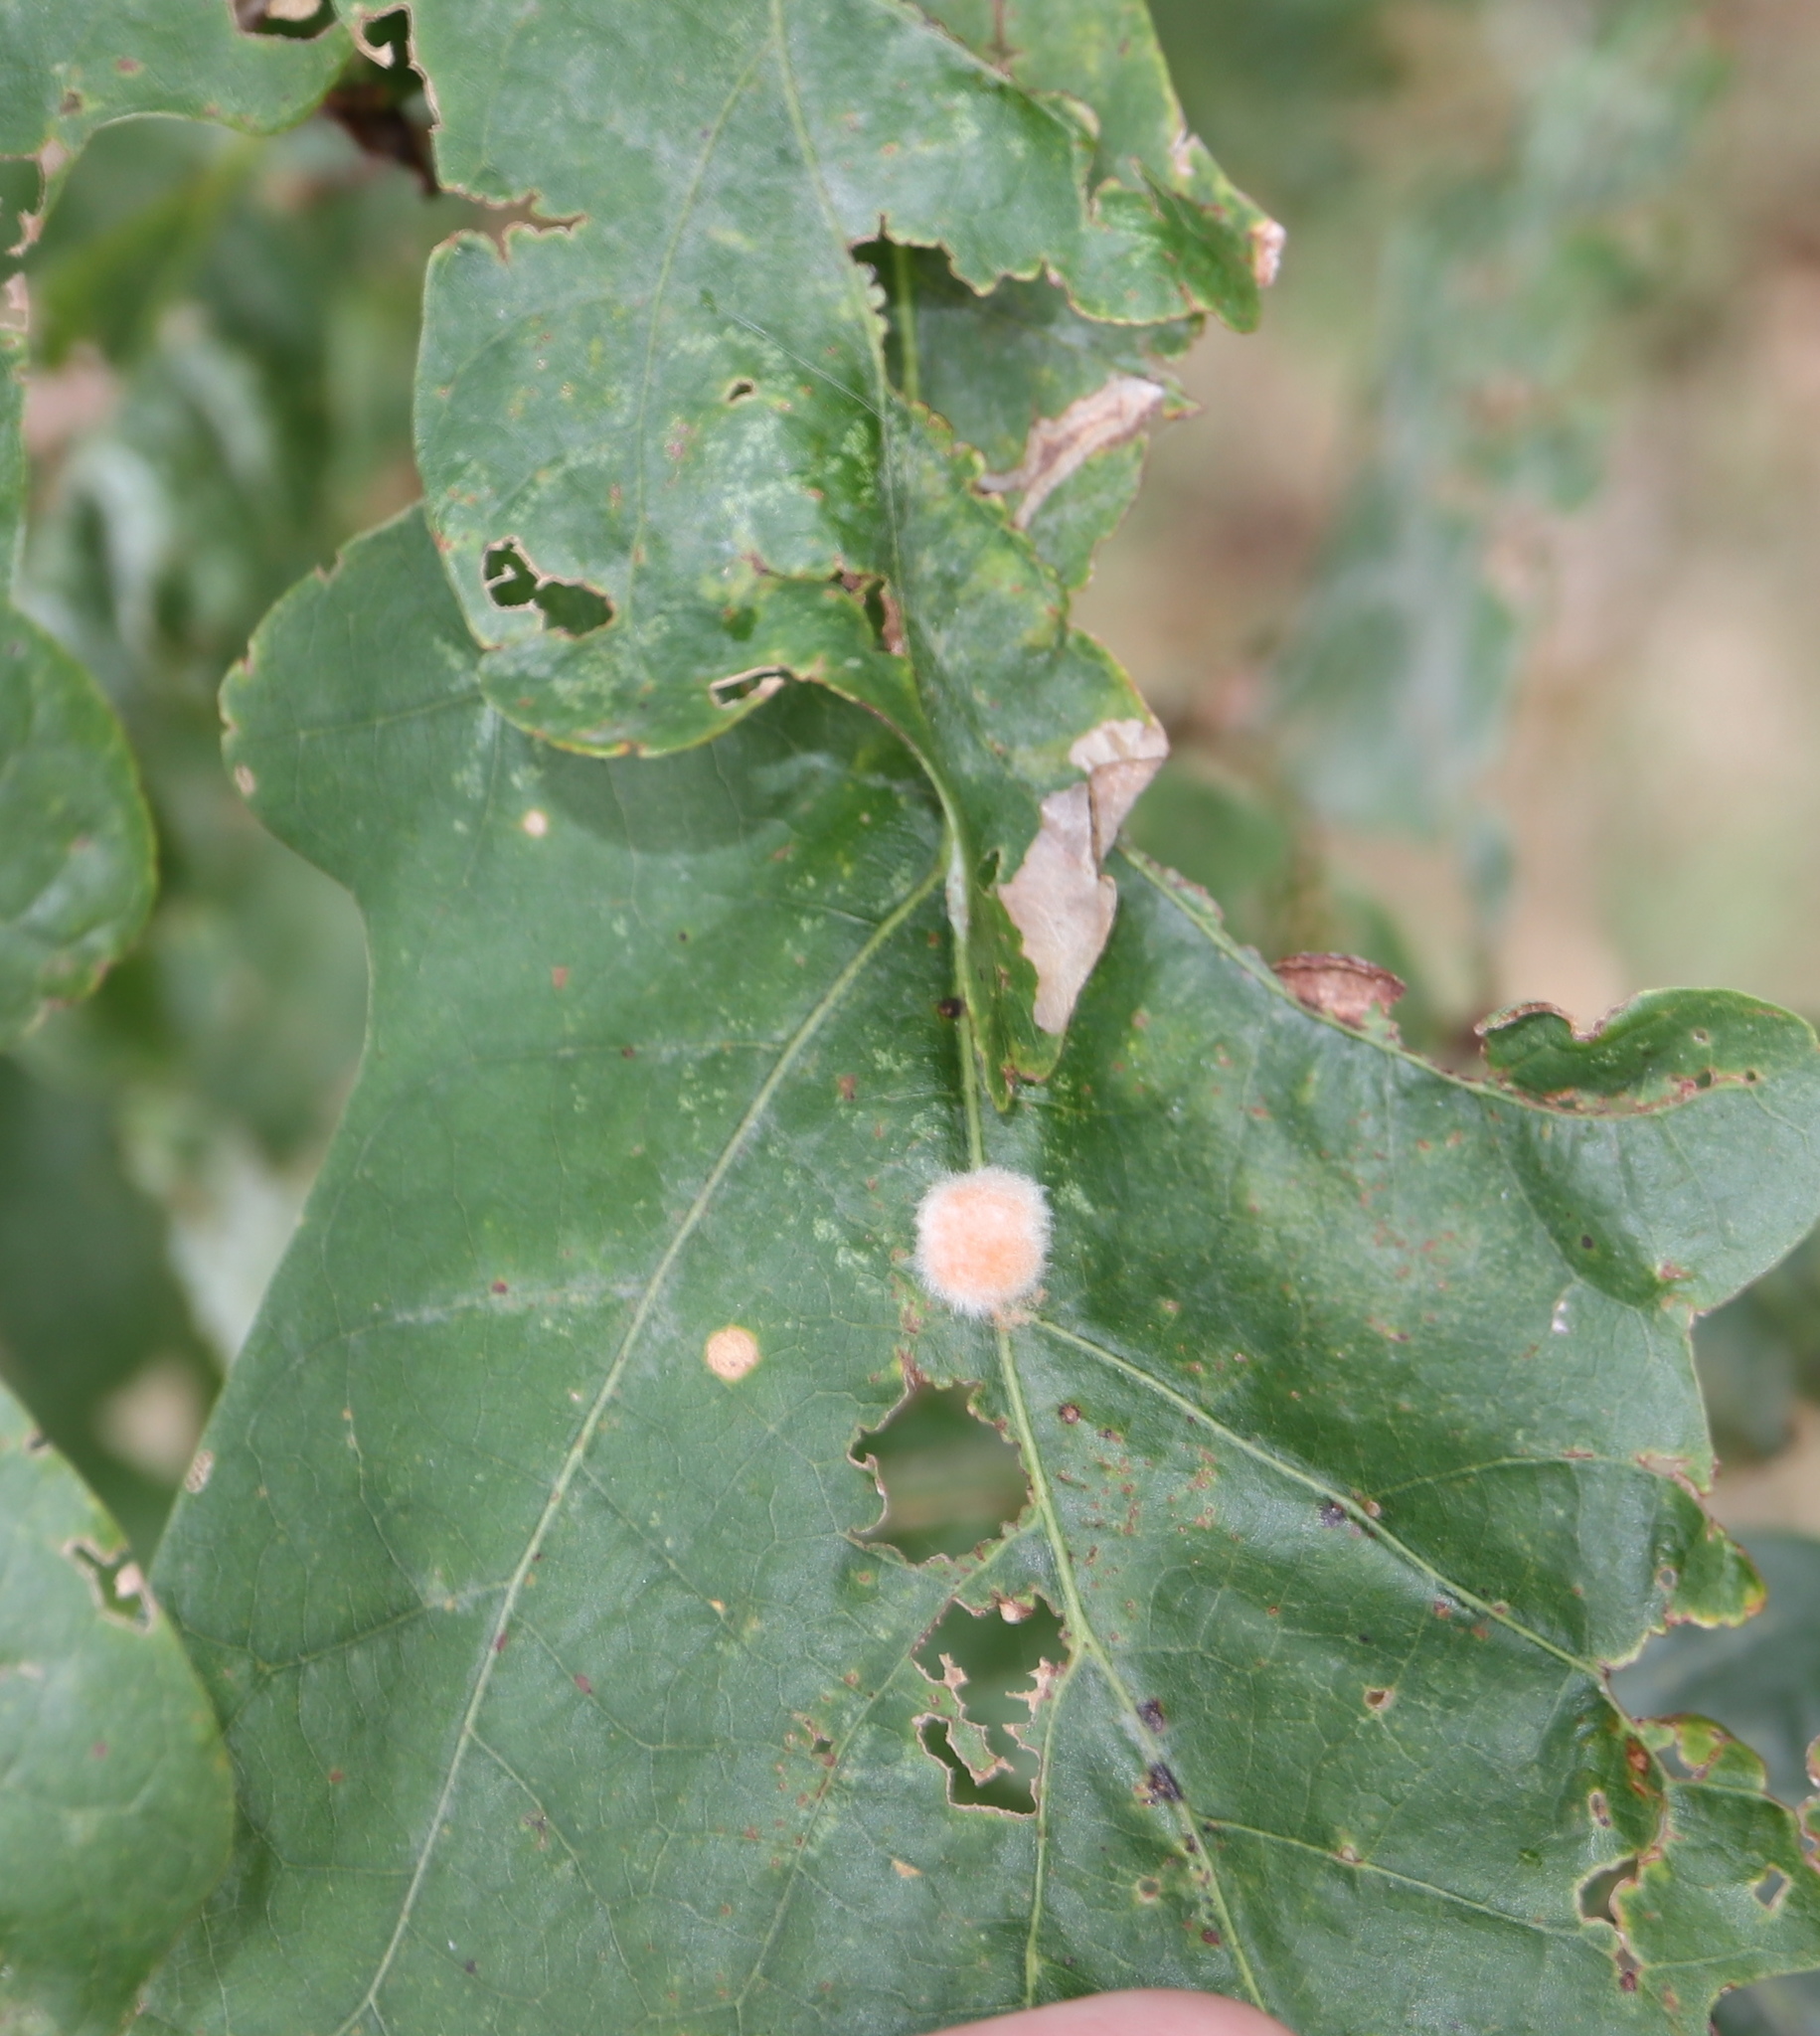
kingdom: Animalia
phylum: Arthropoda
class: Insecta
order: Hymenoptera
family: Cynipidae
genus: Andricus
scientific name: Andricus quercusflocci
